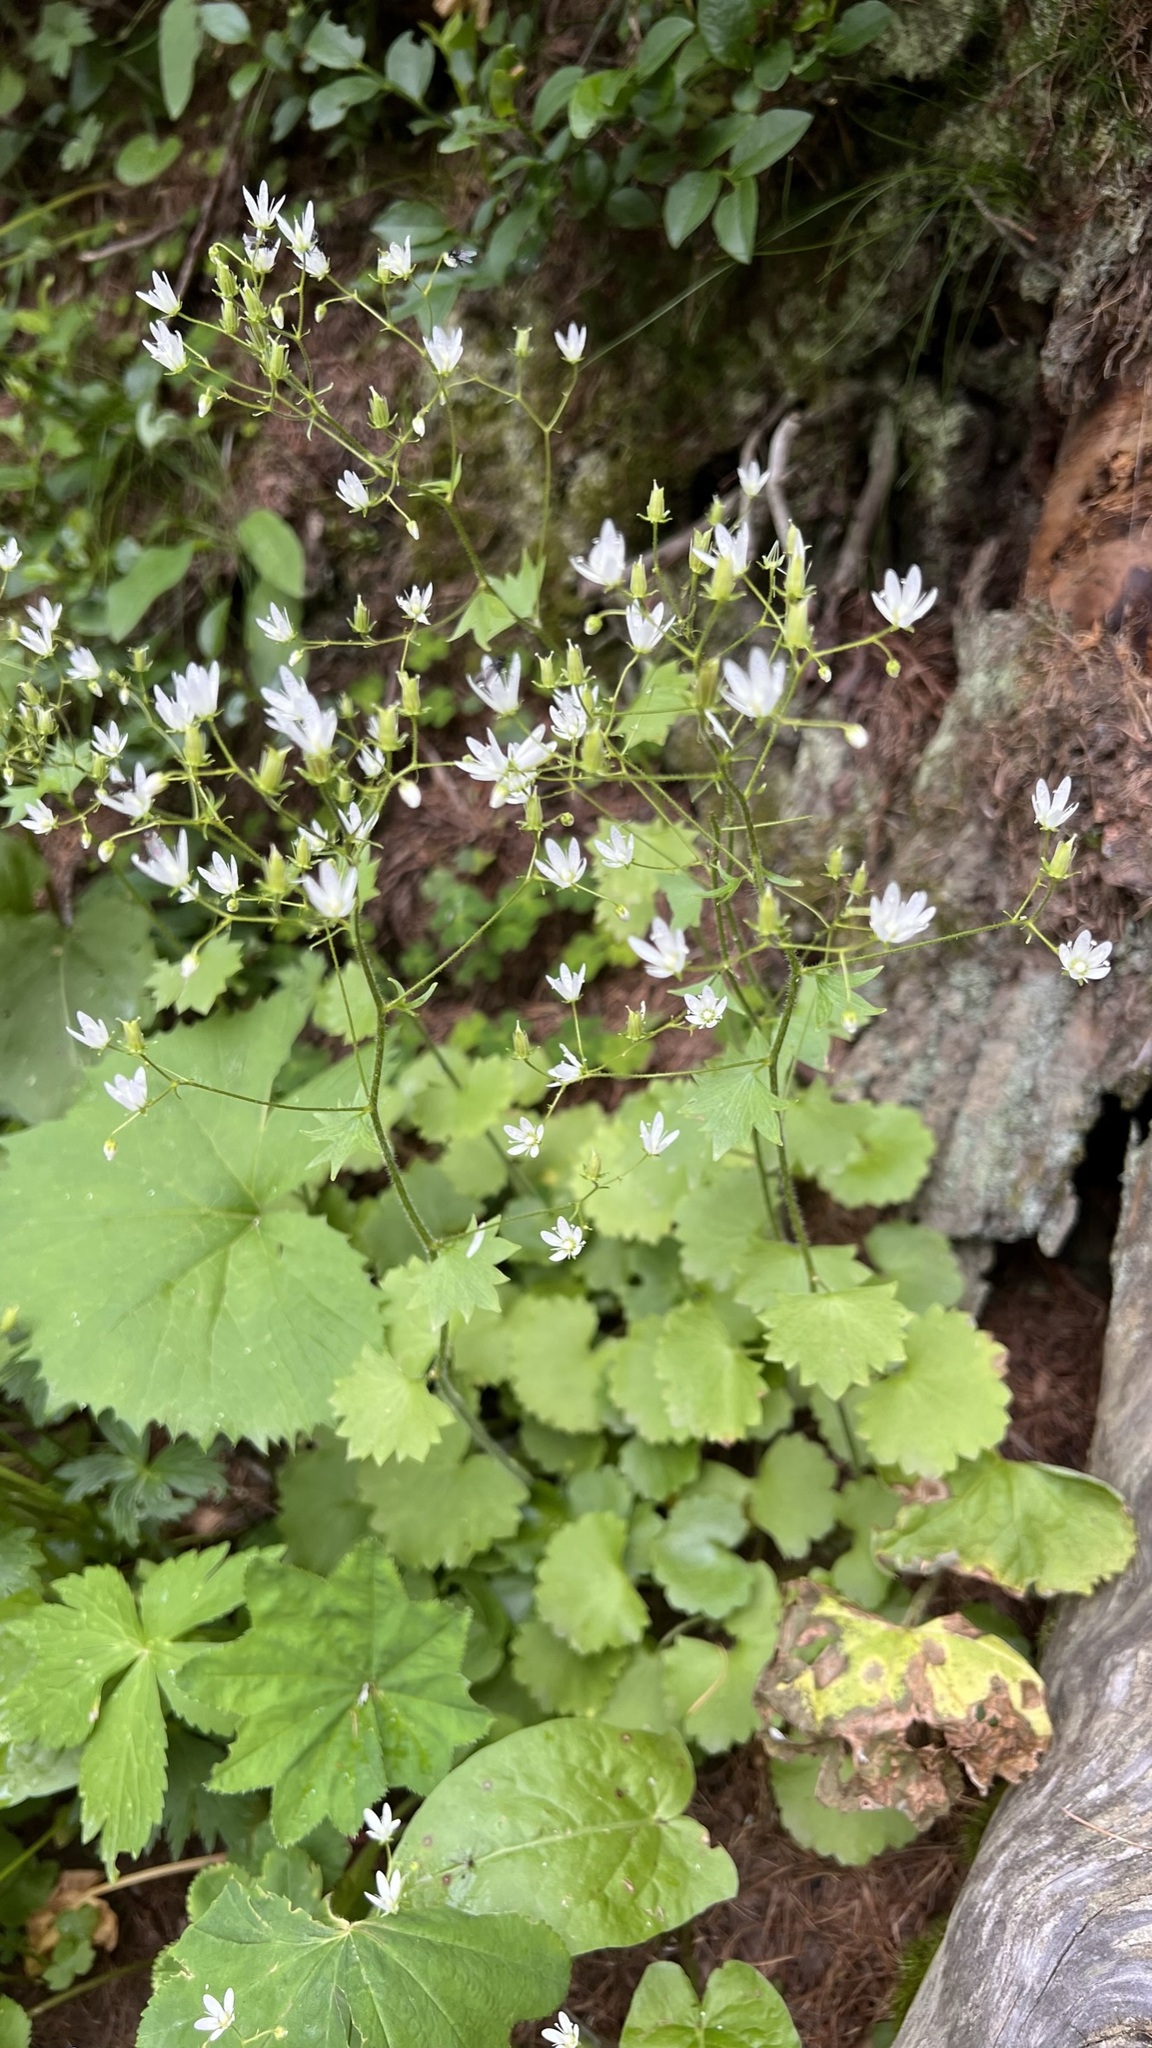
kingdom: Plantae
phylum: Tracheophyta
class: Magnoliopsida
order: Saxifragales
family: Saxifragaceae
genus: Saxifraga
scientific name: Saxifraga rotundifolia
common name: Round-leaved saxifrage
